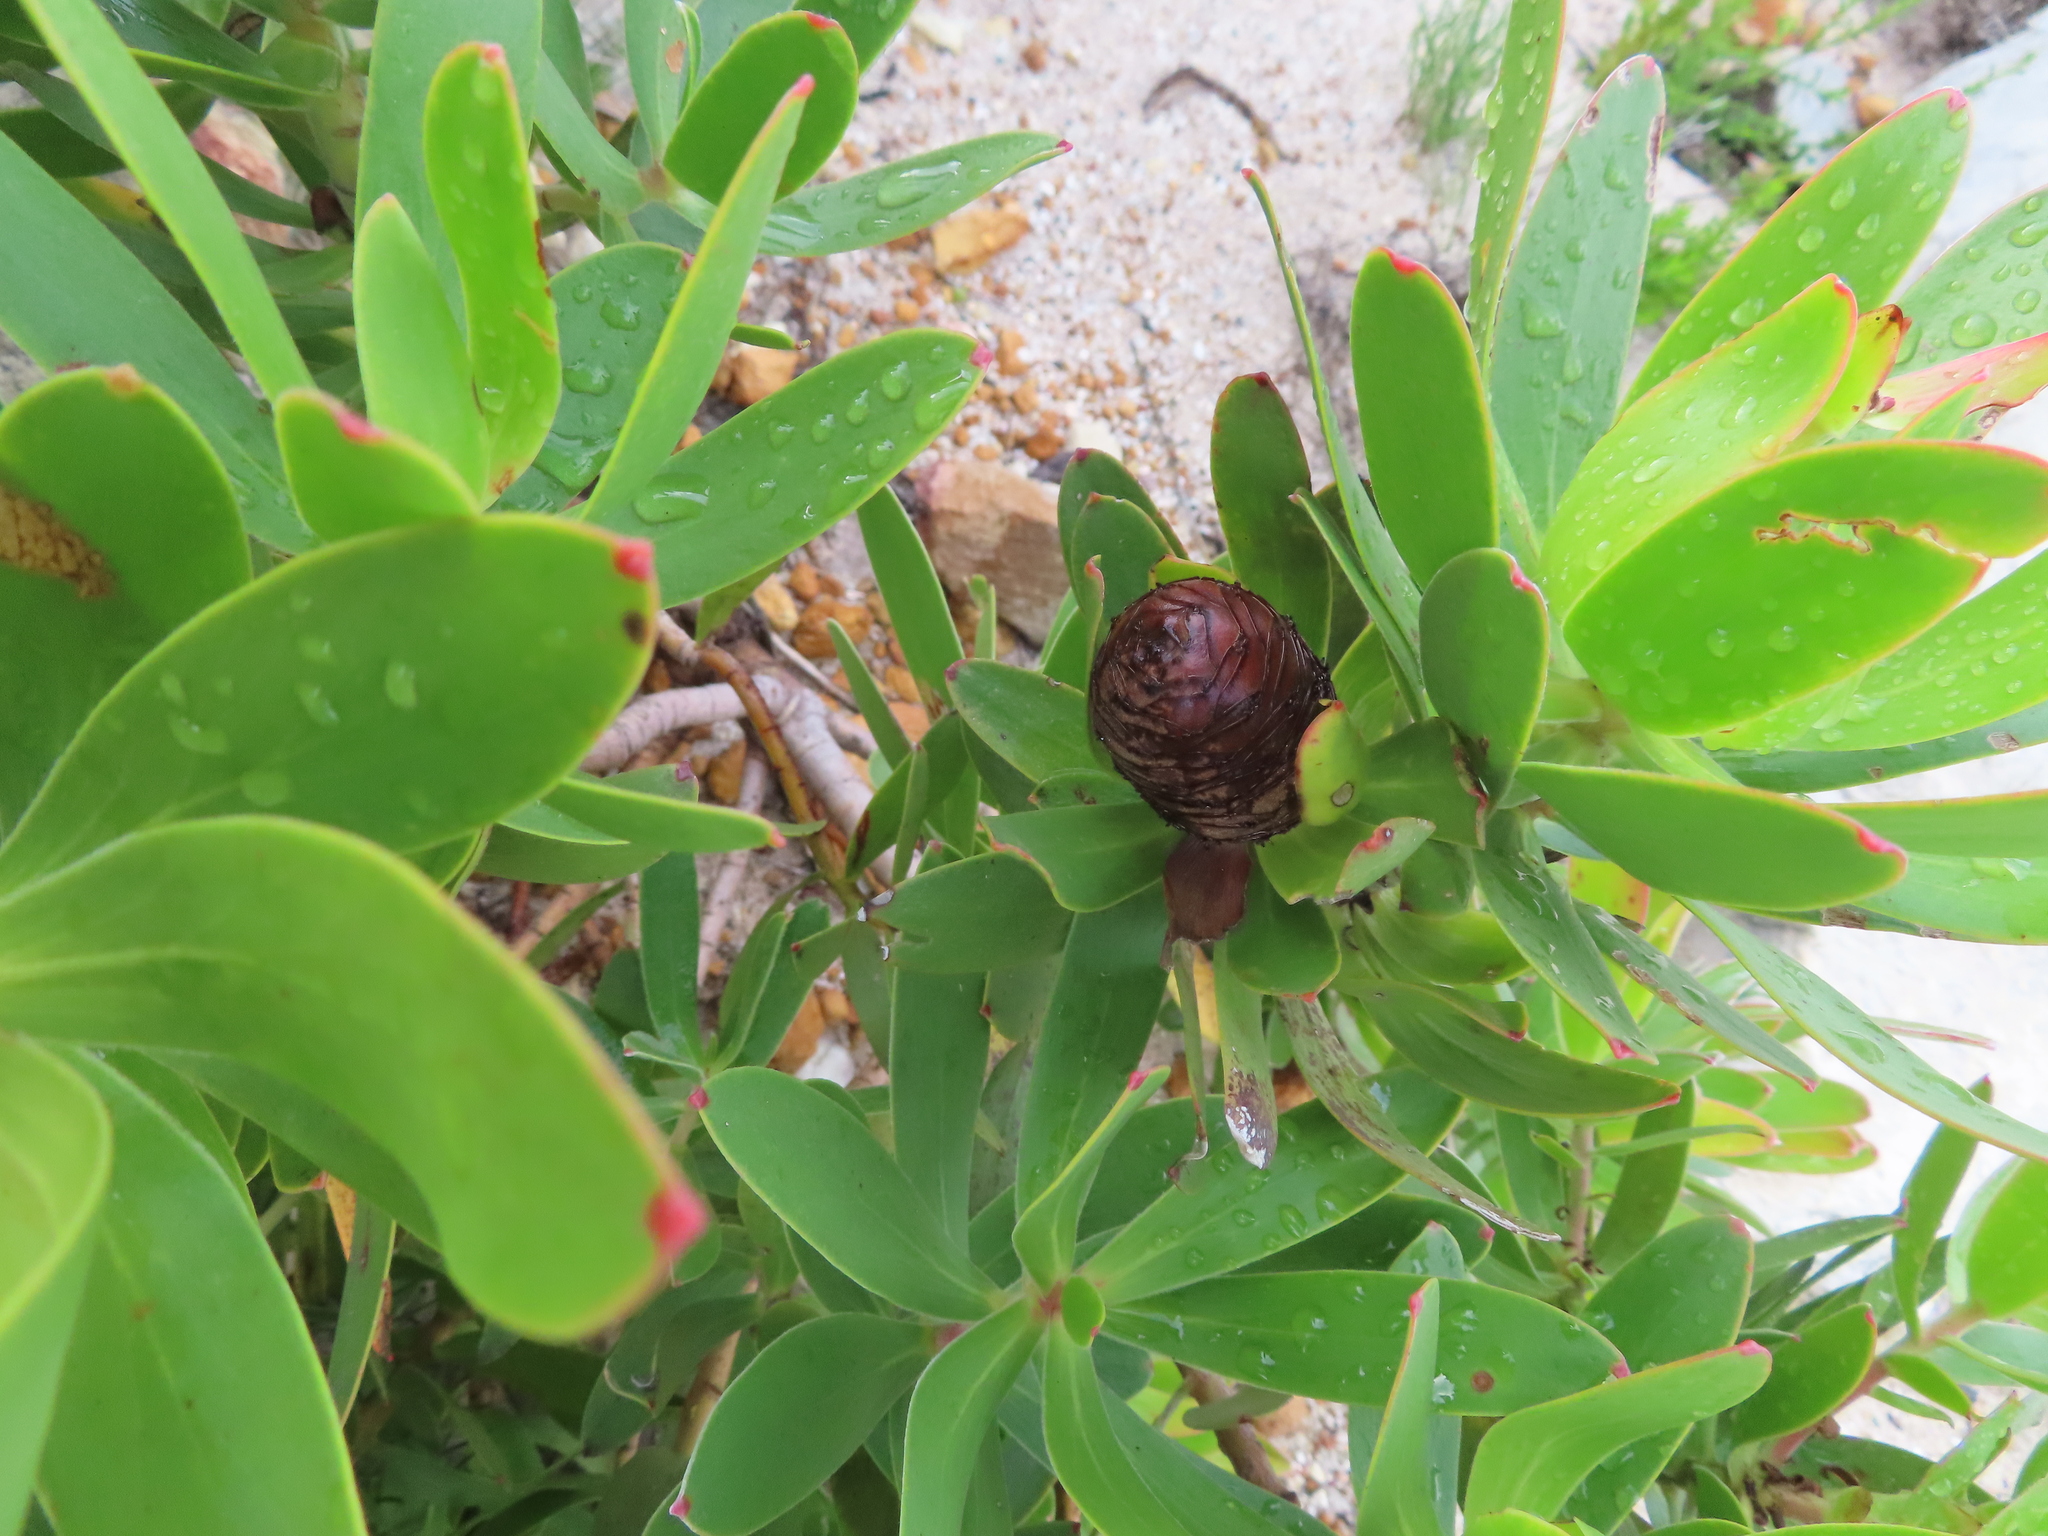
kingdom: Plantae
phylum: Tracheophyta
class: Magnoliopsida
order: Proteales
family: Proteaceae
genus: Leucadendron
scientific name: Leucadendron gandogeri
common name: Broad-leaf conebush
